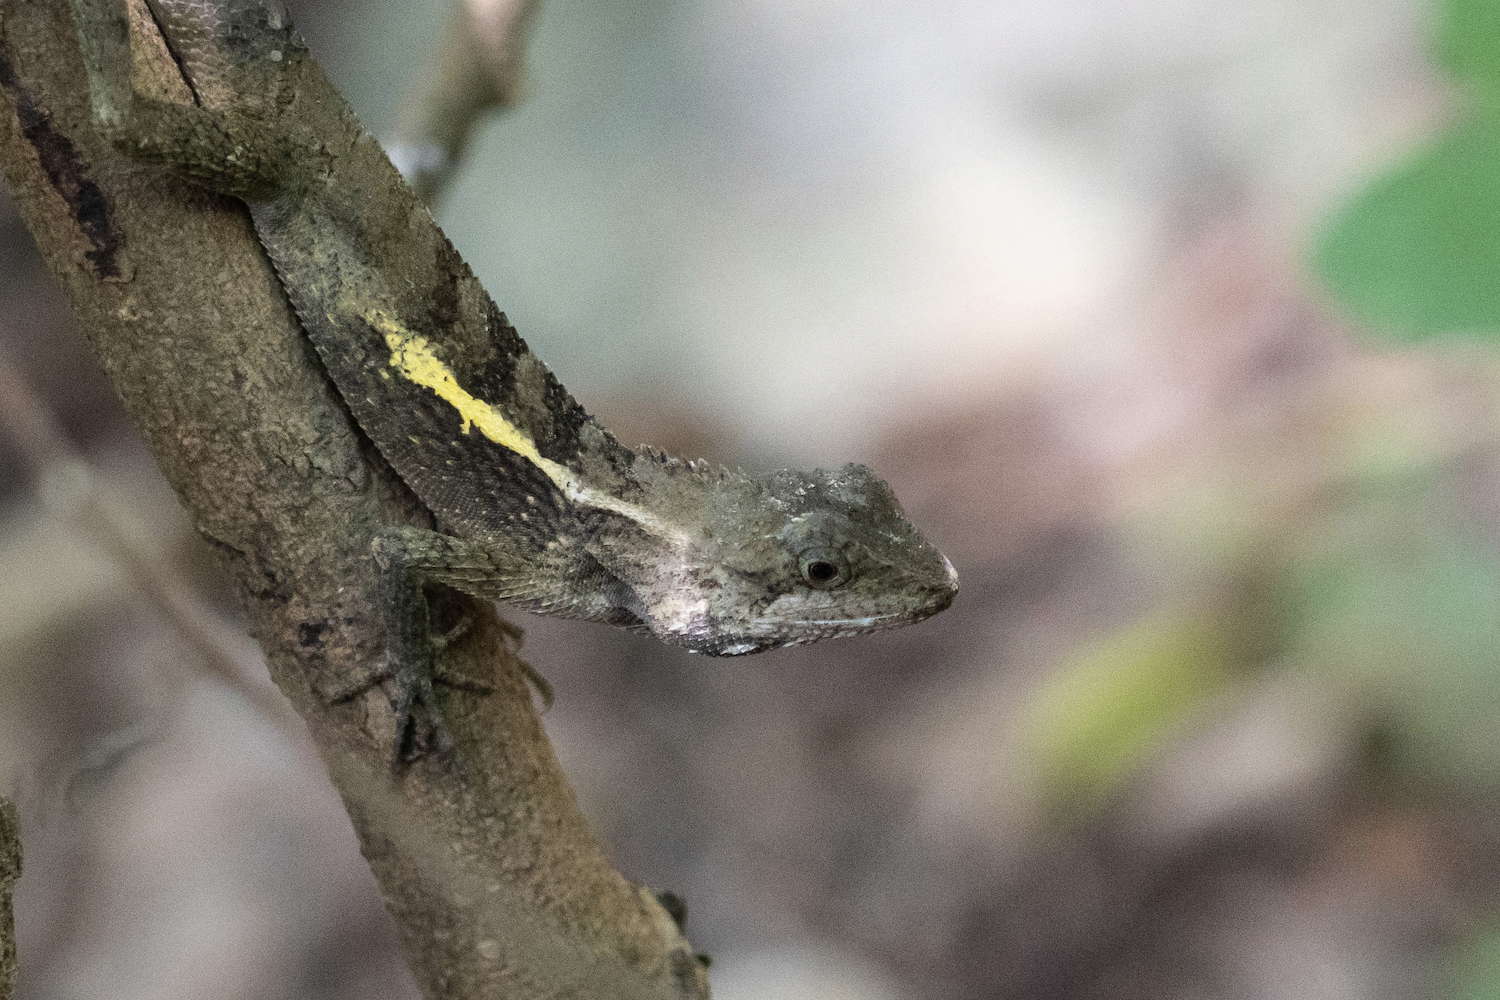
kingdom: Animalia
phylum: Chordata
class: Squamata
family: Agamidae
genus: Diploderma
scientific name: Diploderma swinhonis
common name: Taiwan japalure
